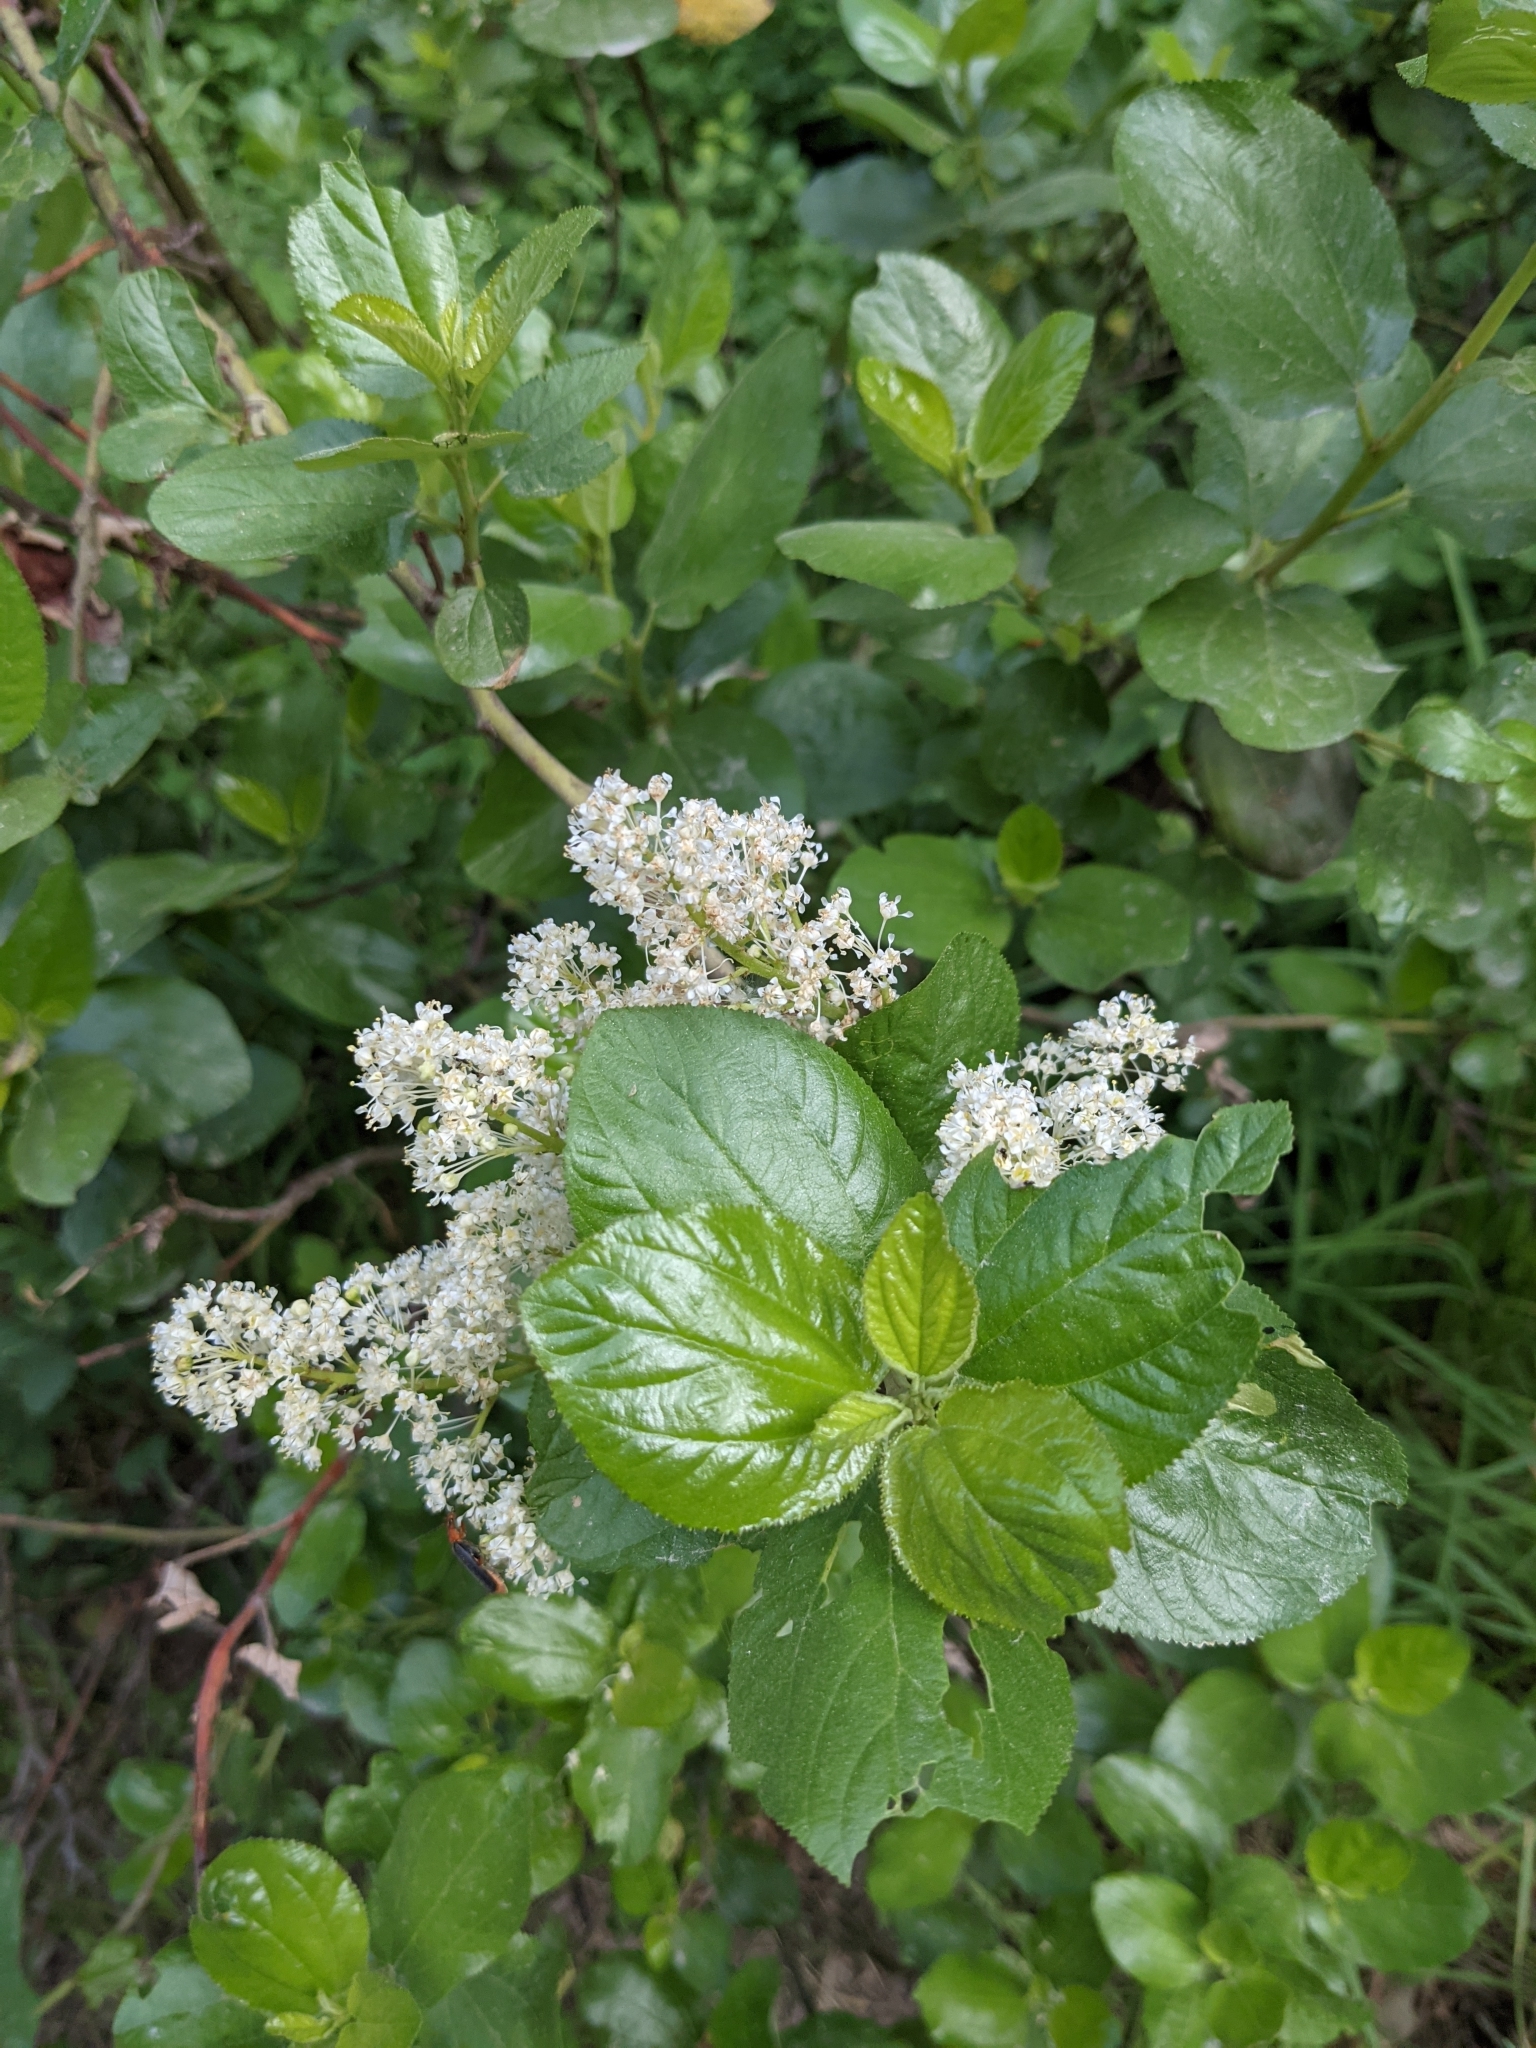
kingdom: Plantae
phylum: Tracheophyta
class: Magnoliopsida
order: Rosales
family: Rhamnaceae
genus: Ceanothus
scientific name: Ceanothus sanguineus
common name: Teatree
